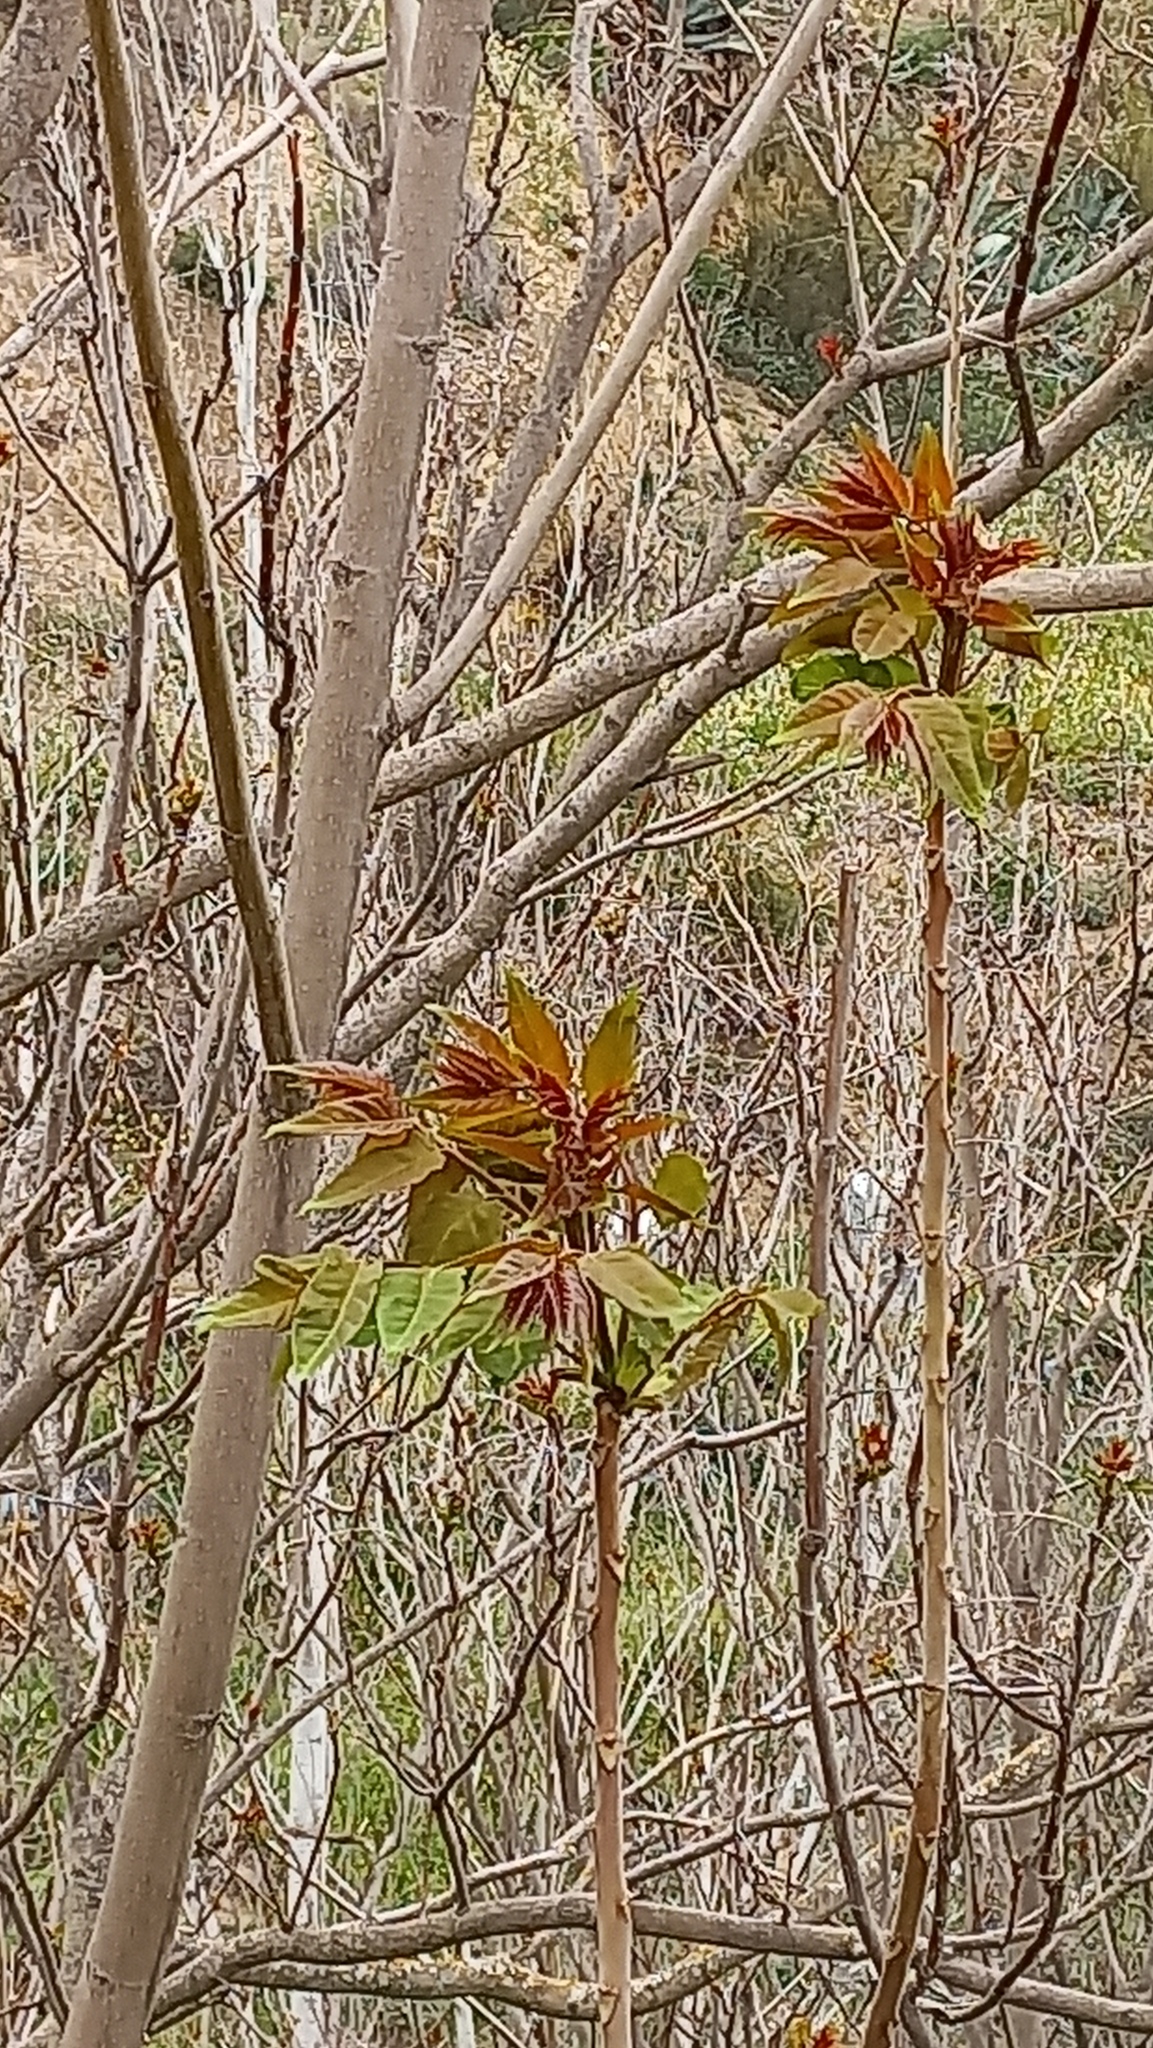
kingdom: Plantae
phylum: Tracheophyta
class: Magnoliopsida
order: Sapindales
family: Simaroubaceae
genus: Ailanthus
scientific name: Ailanthus altissima
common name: Tree-of-heaven
